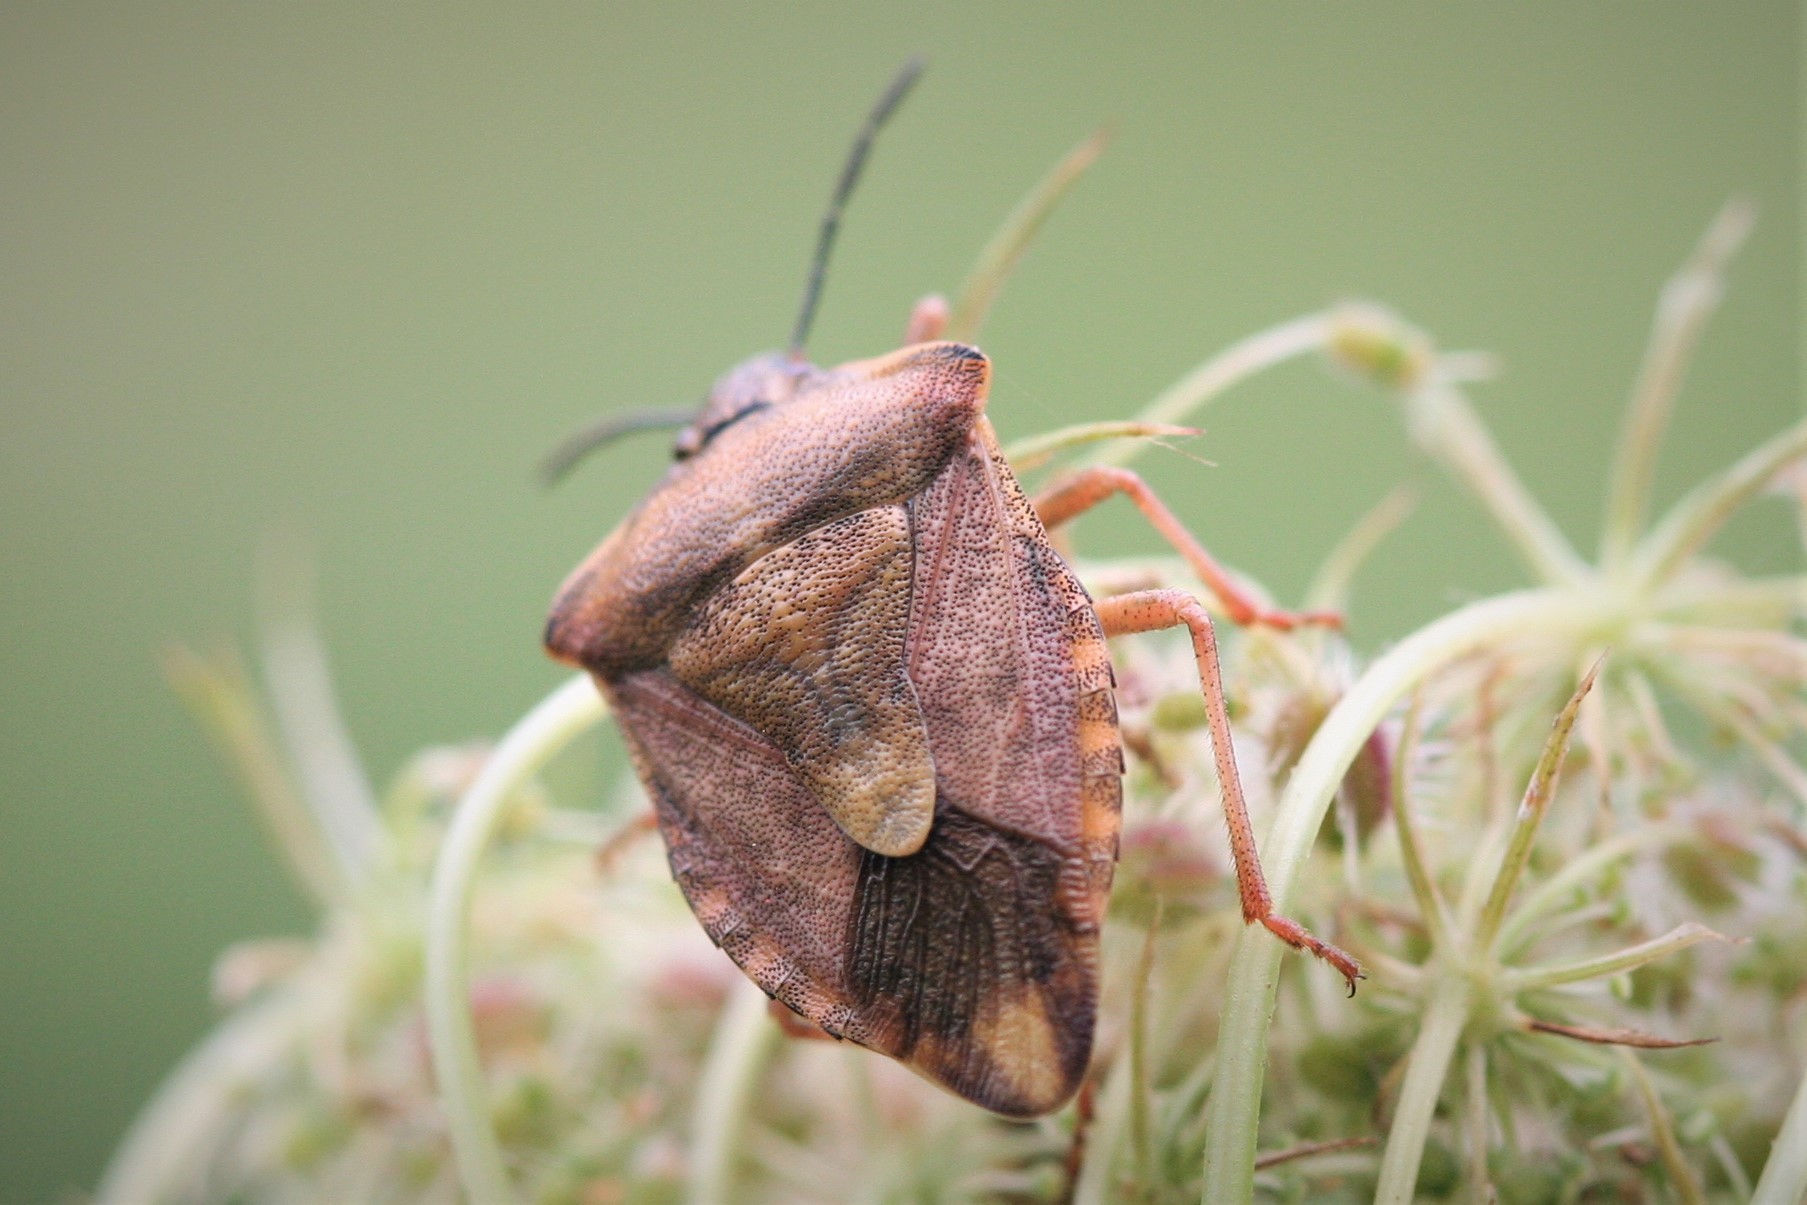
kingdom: Animalia
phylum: Arthropoda
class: Insecta
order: Hemiptera
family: Pentatomidae
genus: Carpocoris
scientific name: Carpocoris purpureipennis
